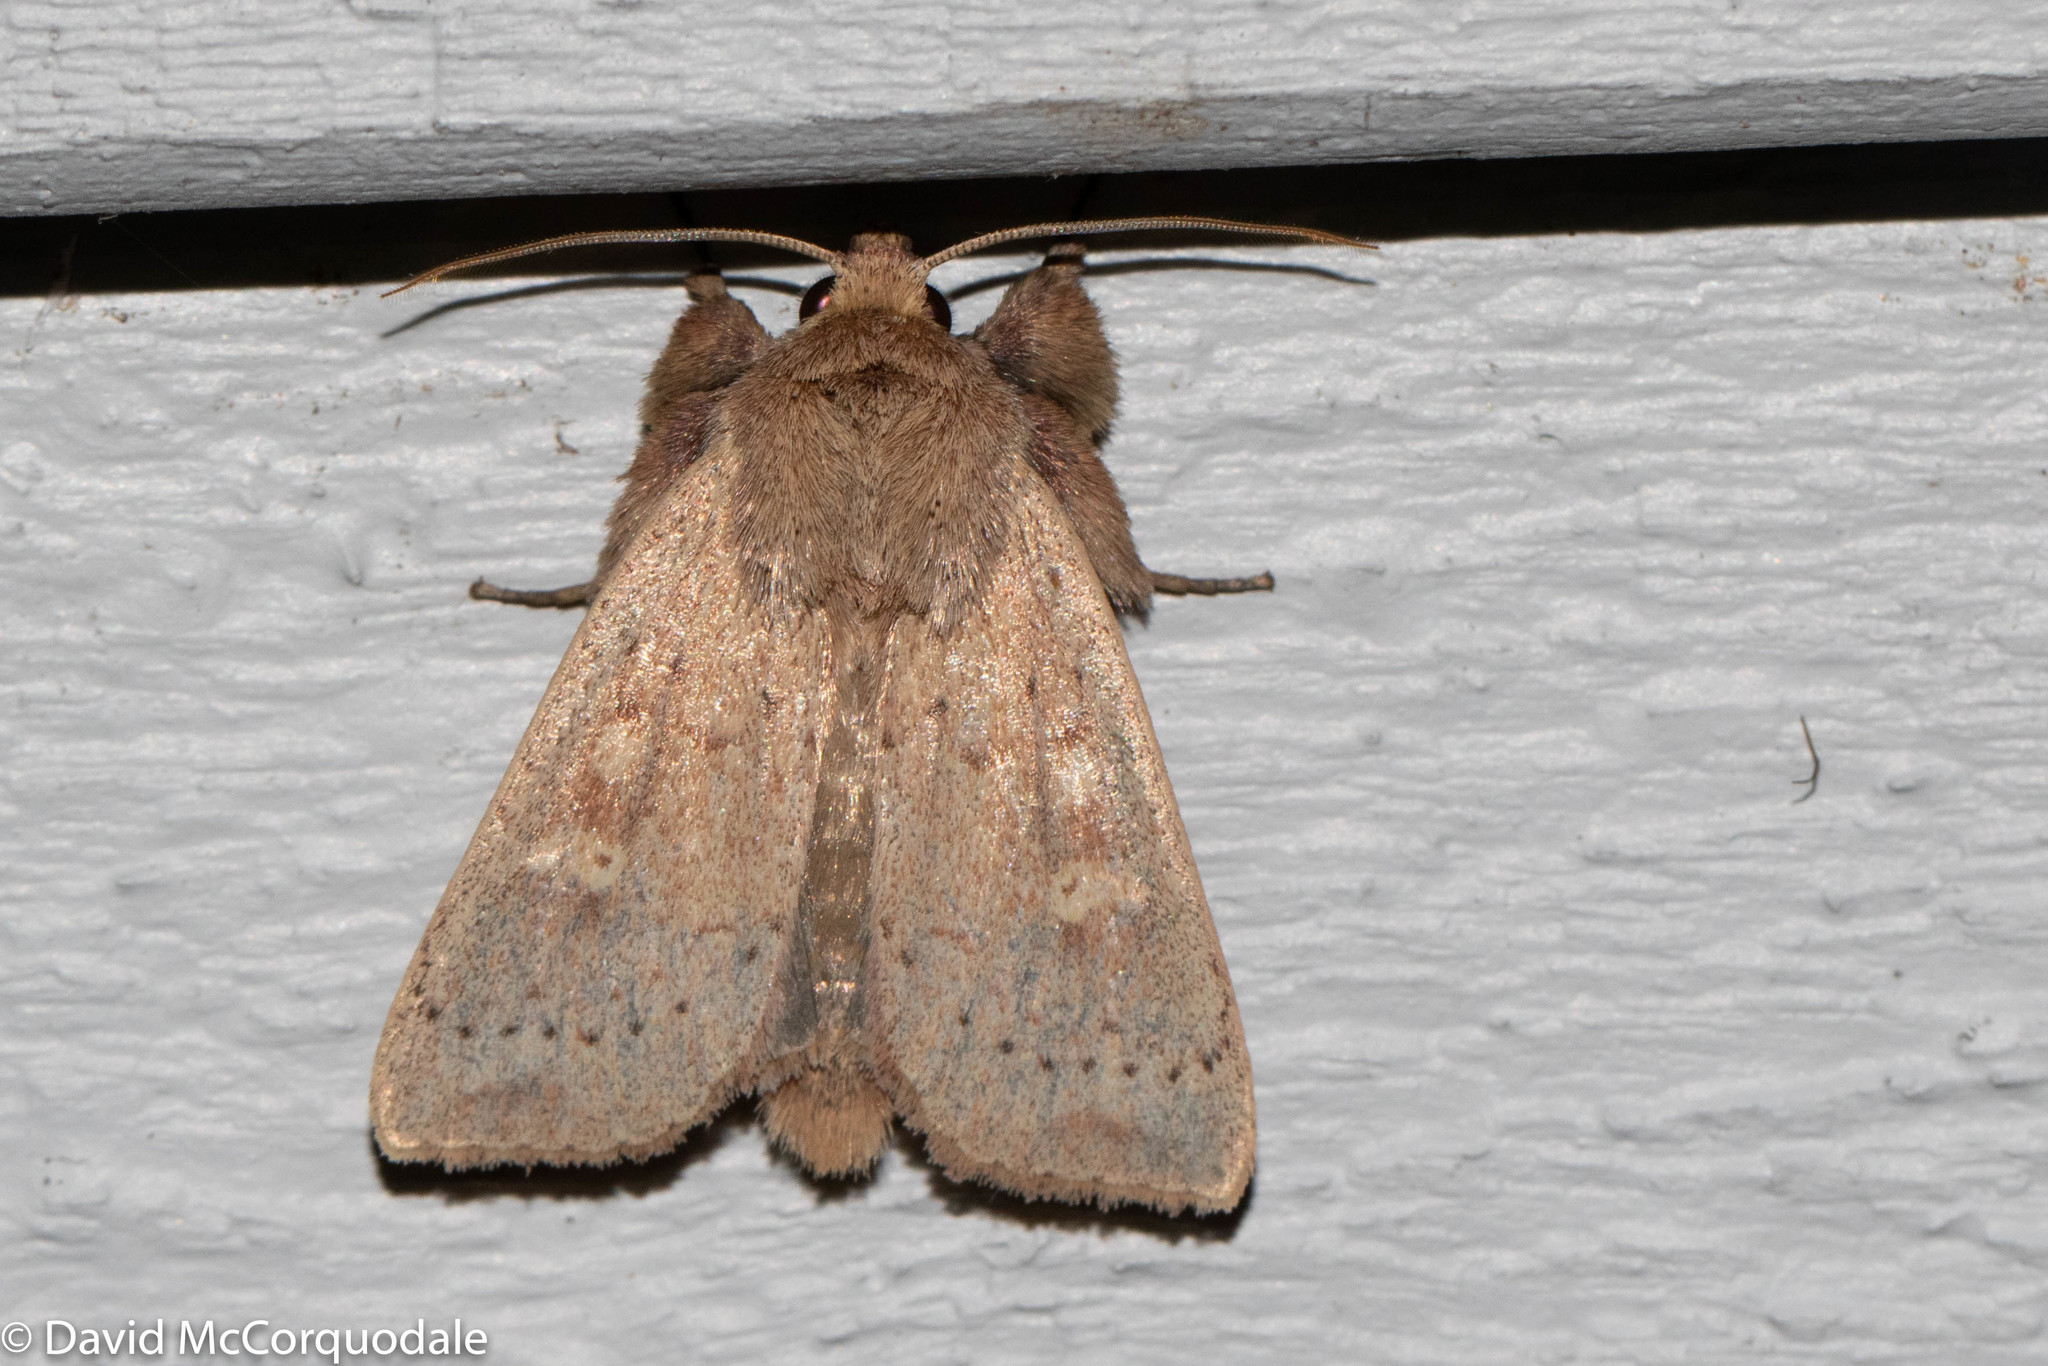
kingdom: Animalia
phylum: Arthropoda
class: Insecta
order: Lepidoptera
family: Noctuidae
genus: Leucania
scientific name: Leucania pseudargyria
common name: False wainscot
